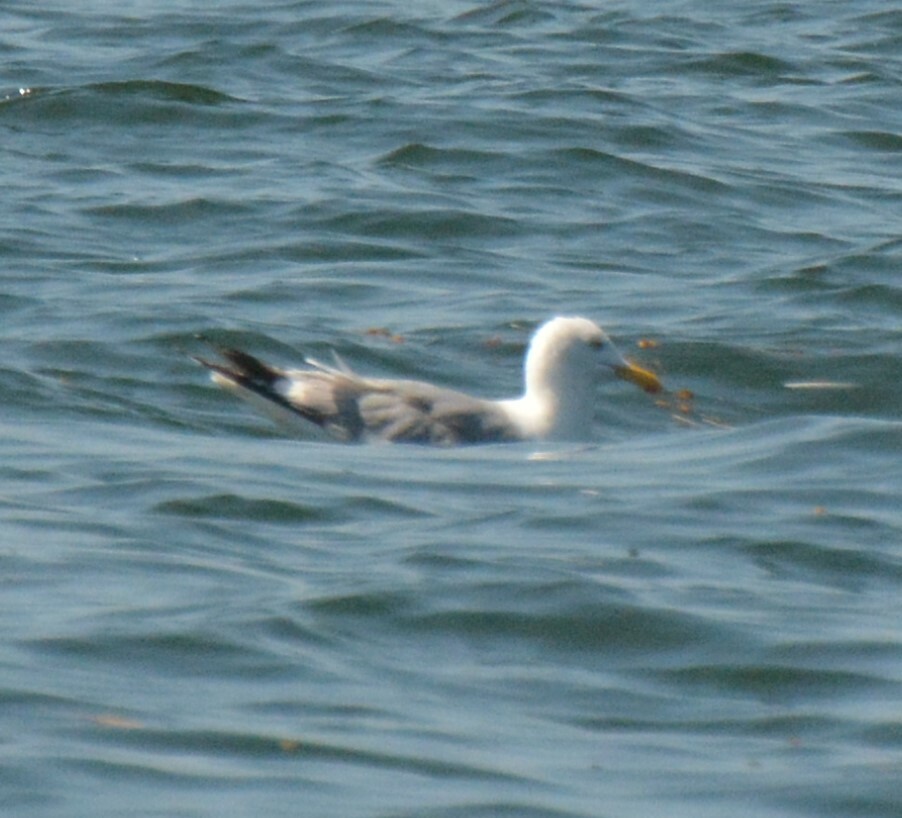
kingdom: Animalia
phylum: Chordata
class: Aves
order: Charadriiformes
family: Laridae
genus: Larus
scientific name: Larus argentatus
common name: Herring gull
